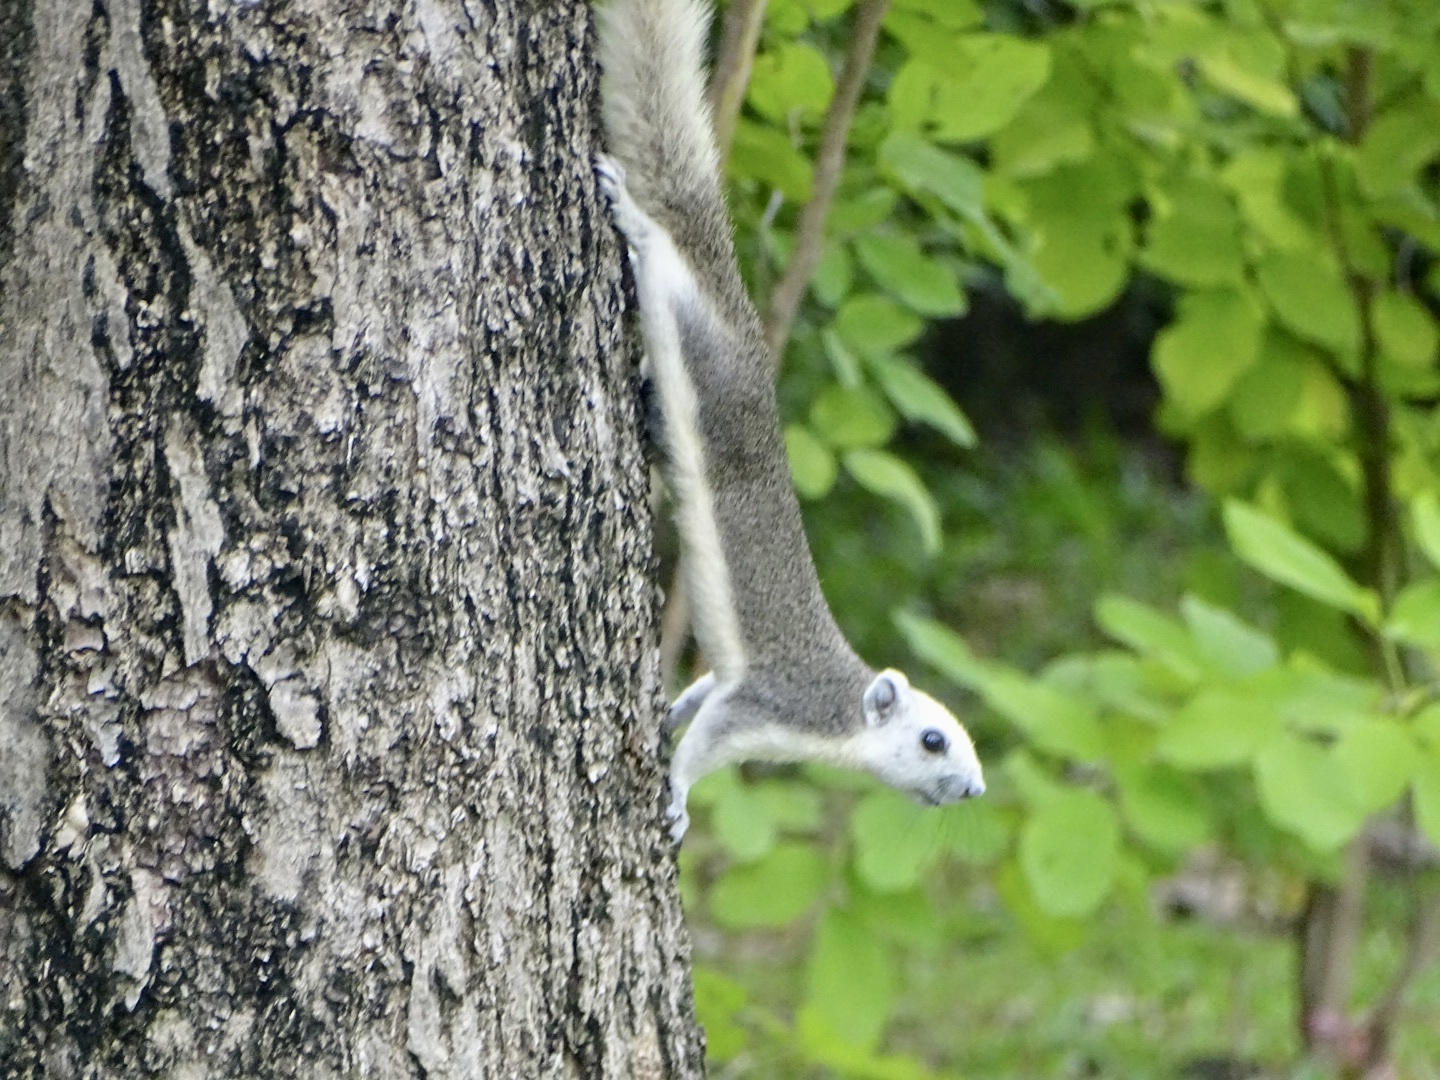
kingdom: Animalia
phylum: Chordata
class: Mammalia
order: Rodentia
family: Sciuridae
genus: Callosciurus
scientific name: Callosciurus finlaysonii
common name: Finlayson's squirrel
